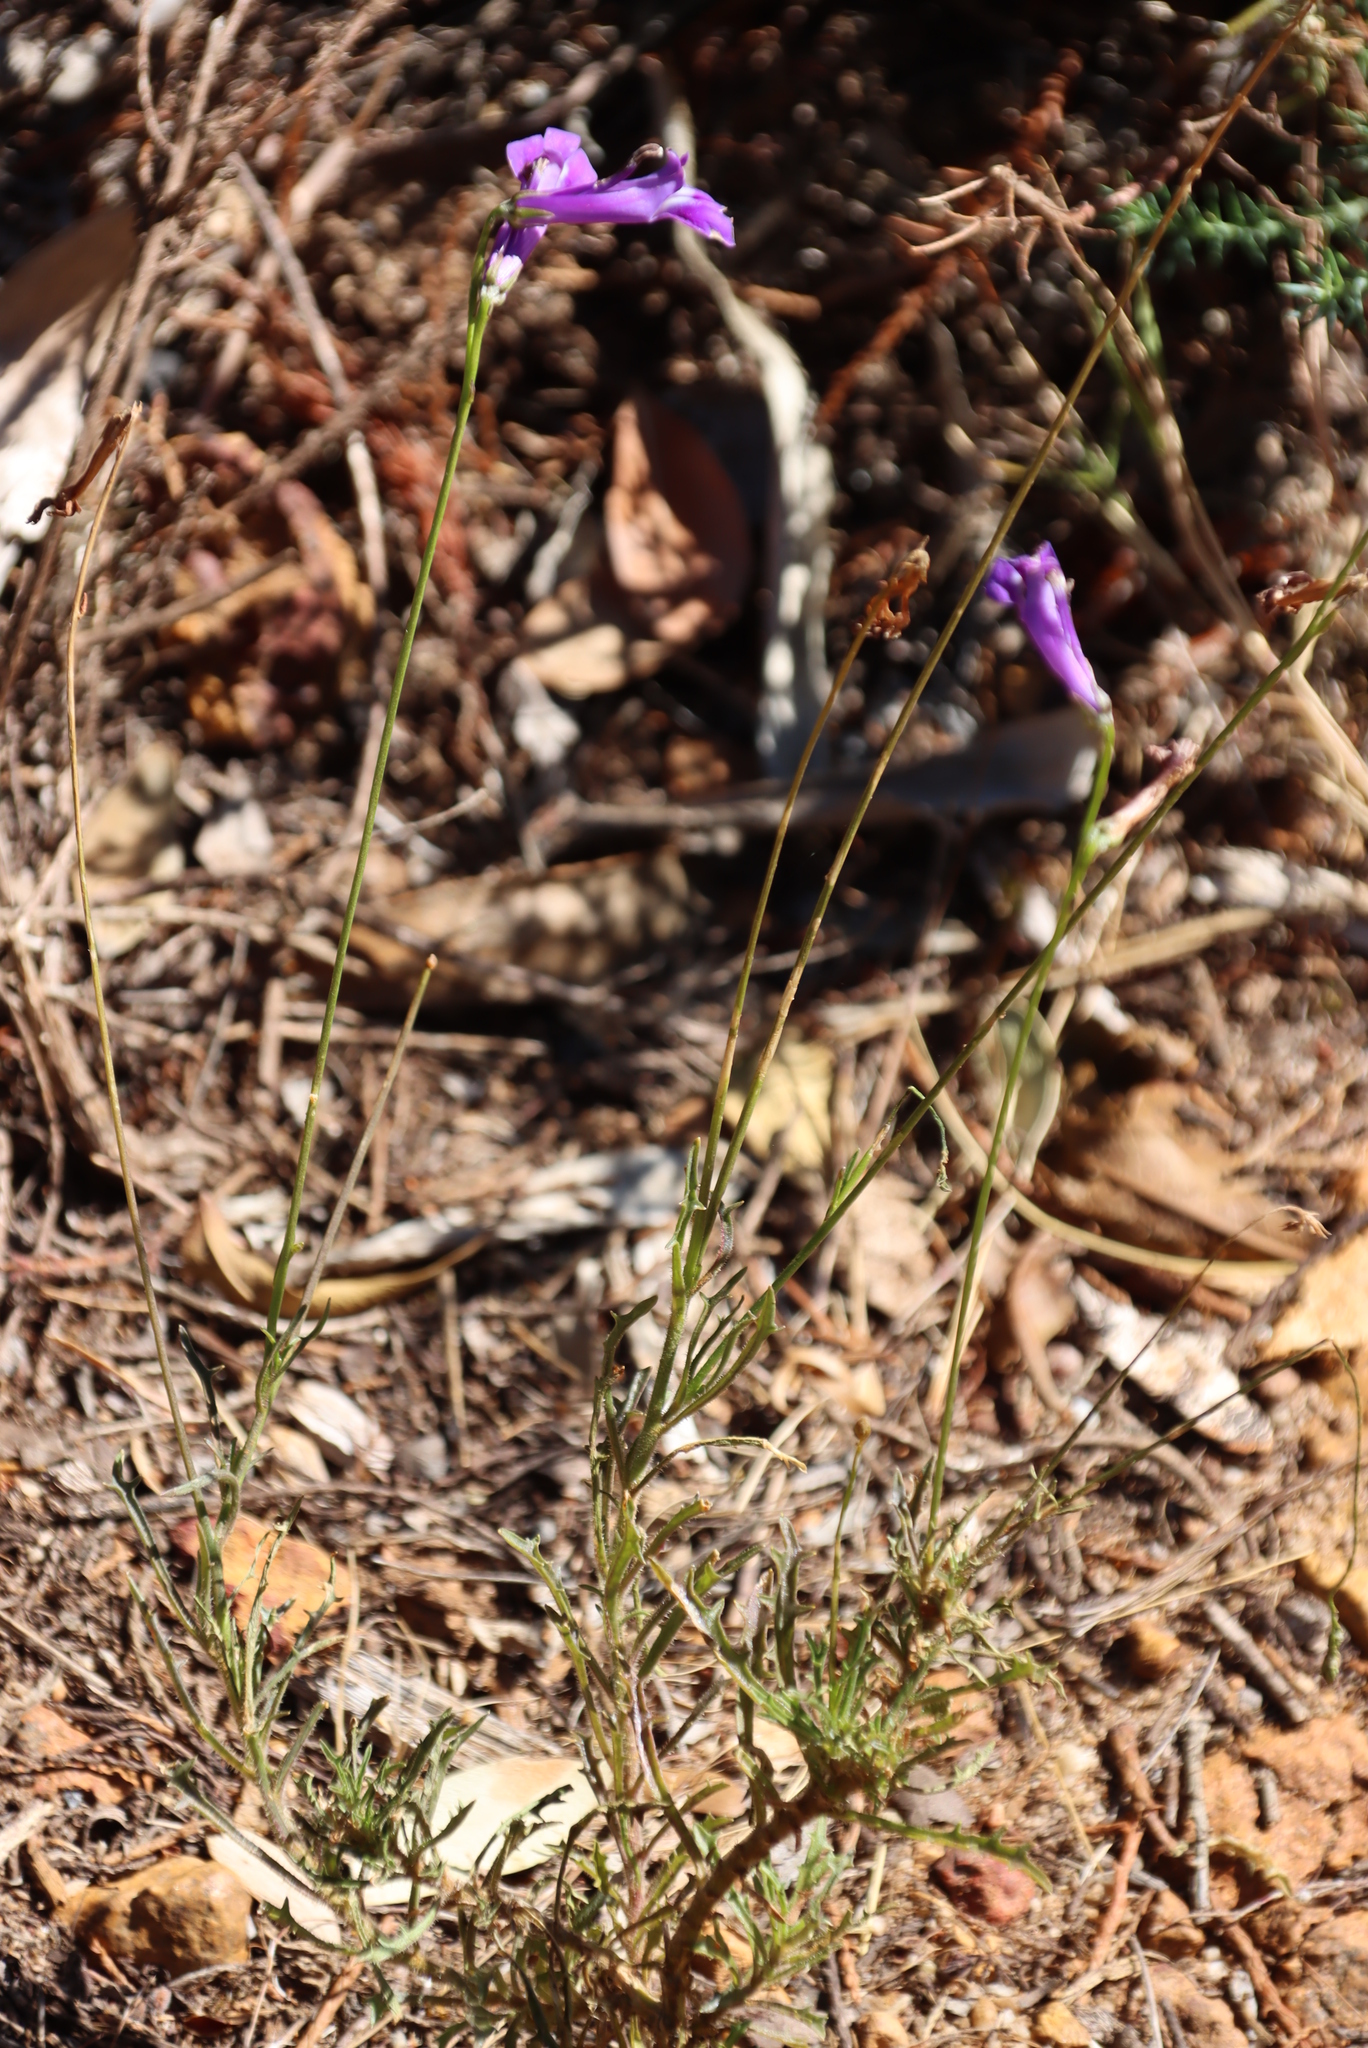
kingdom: Plantae
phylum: Tracheophyta
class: Magnoliopsida
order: Asterales
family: Campanulaceae
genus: Lobelia
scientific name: Lobelia coronopifolia
